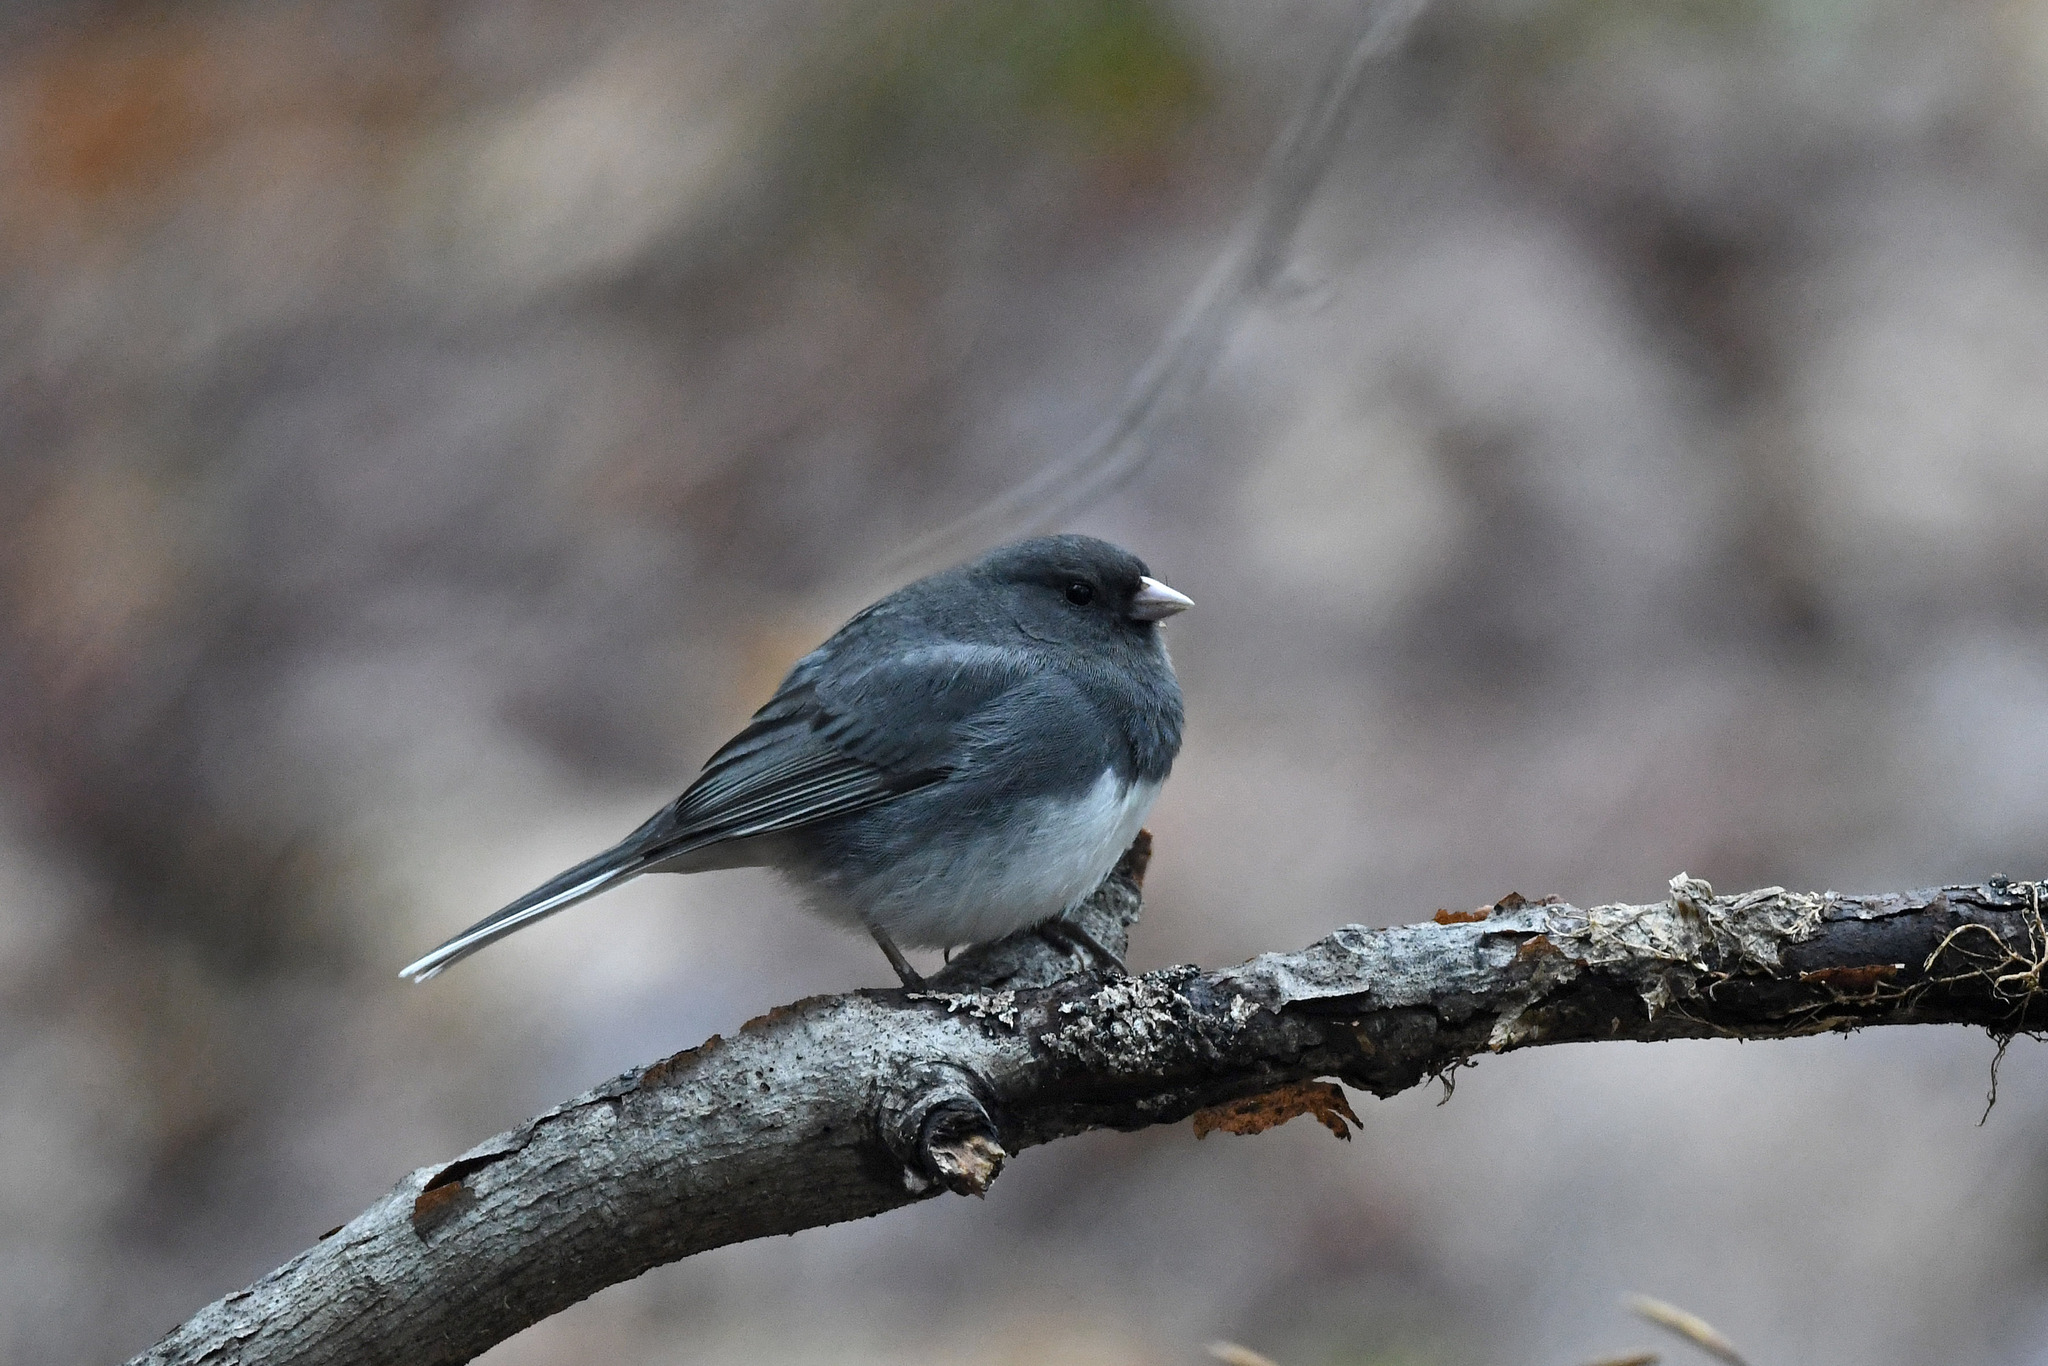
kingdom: Animalia
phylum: Chordata
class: Aves
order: Passeriformes
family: Passerellidae
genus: Junco
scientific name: Junco hyemalis
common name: Dark-eyed junco
